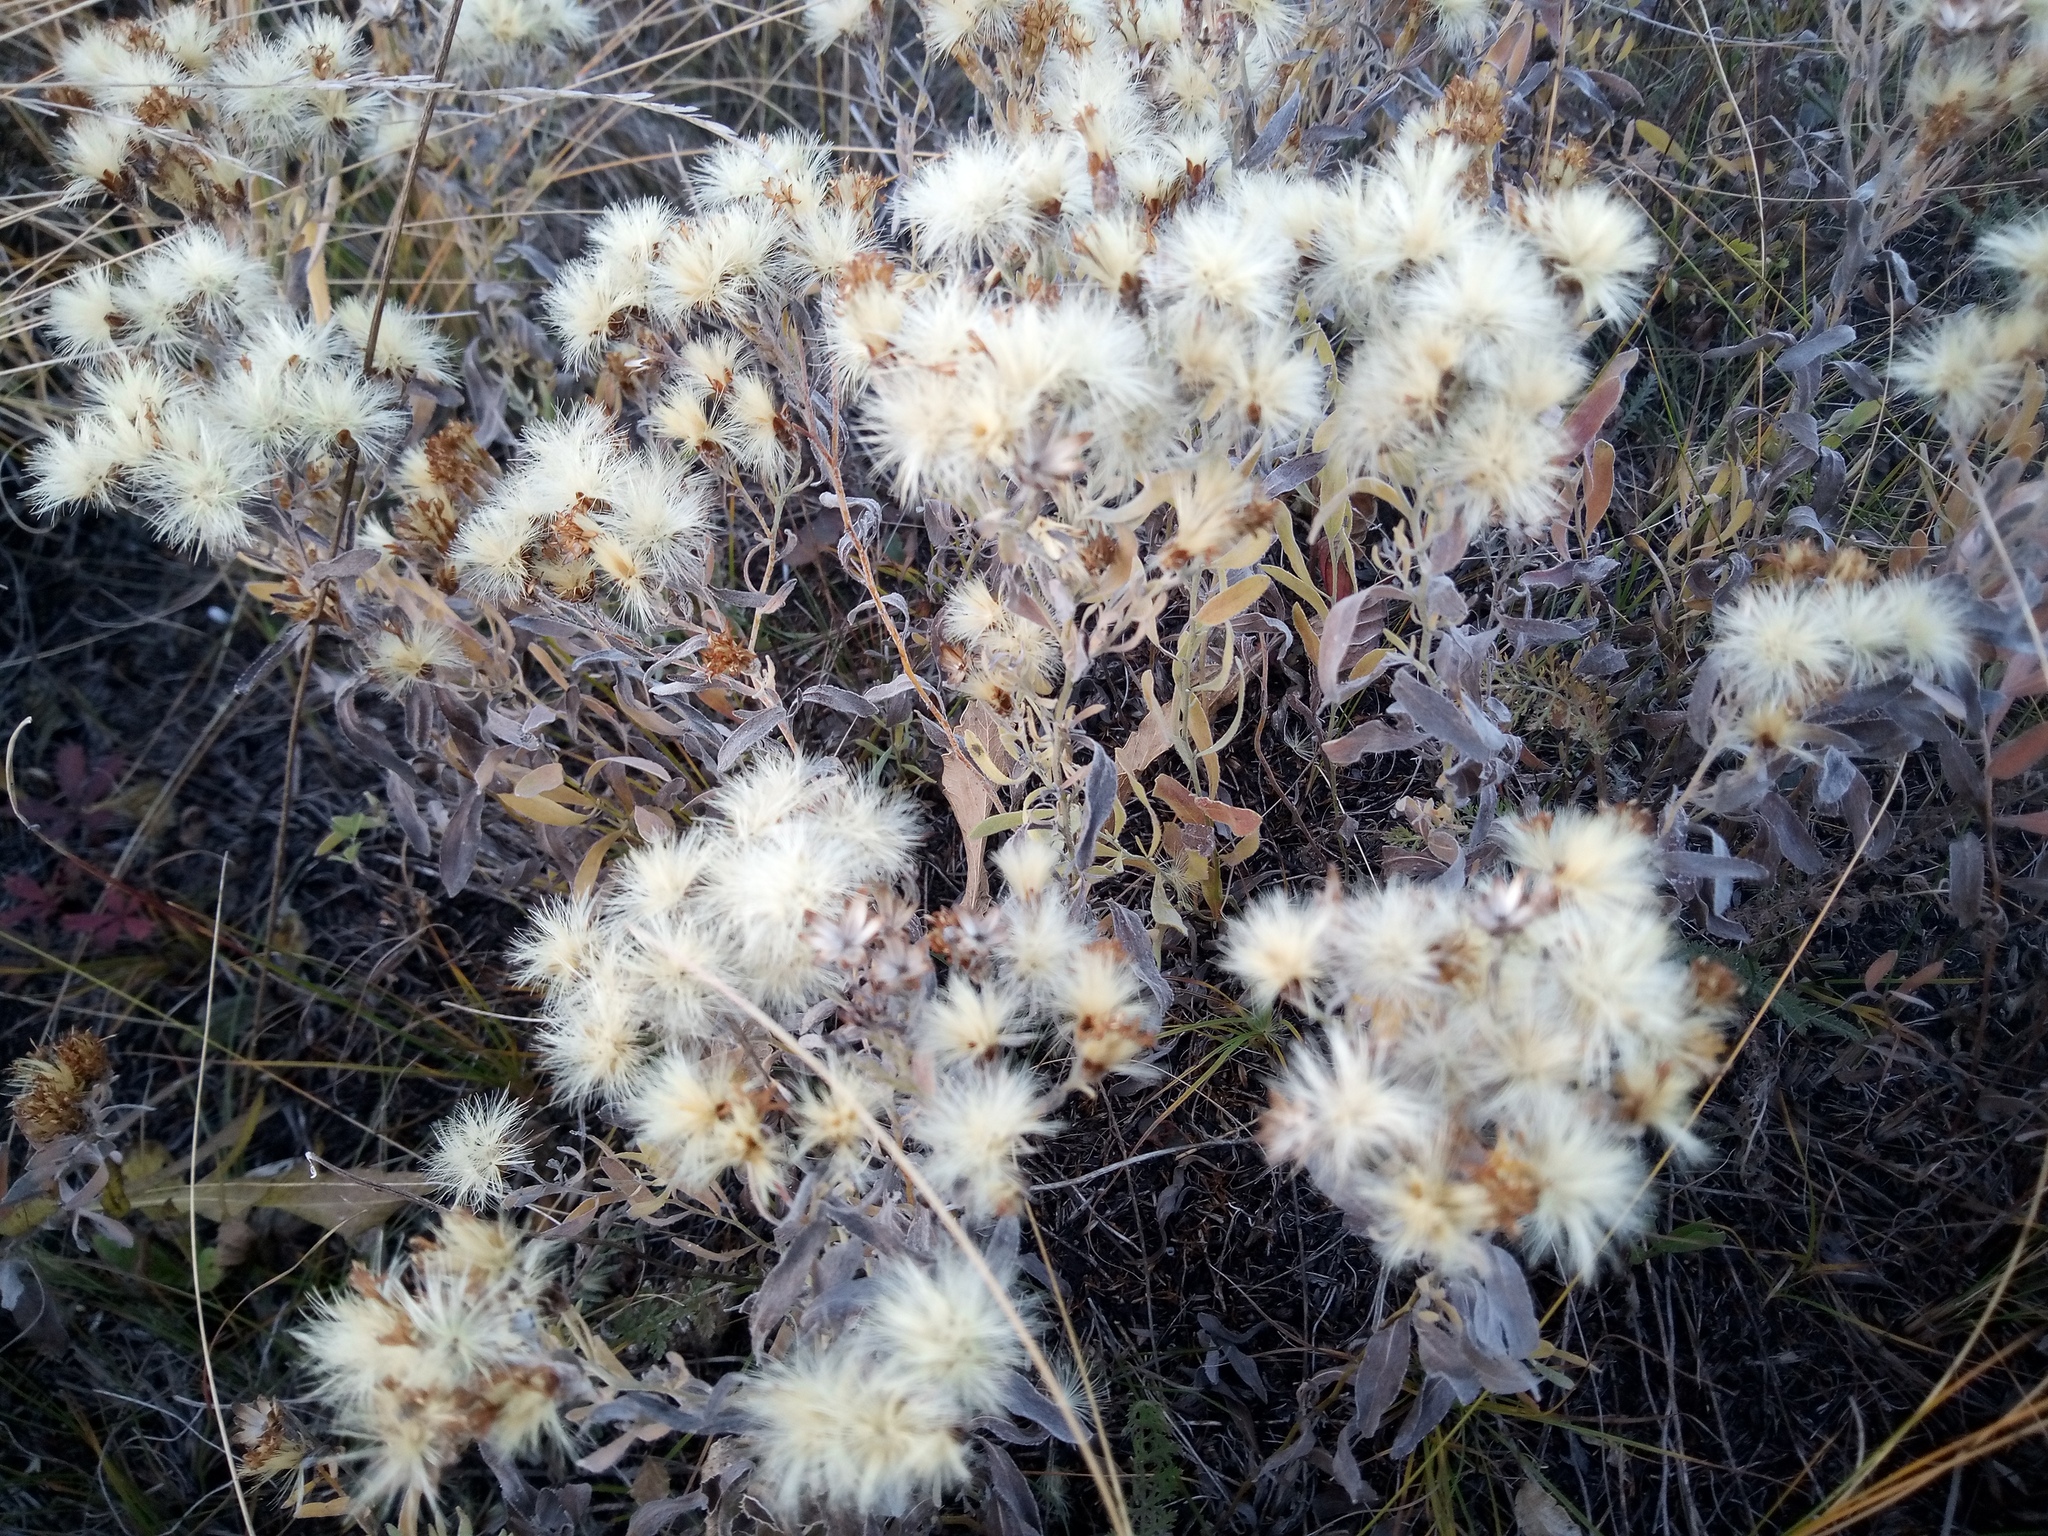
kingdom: Plantae
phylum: Tracheophyta
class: Magnoliopsida
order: Asterales
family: Asteraceae
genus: Galatella
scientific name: Galatella villosa
